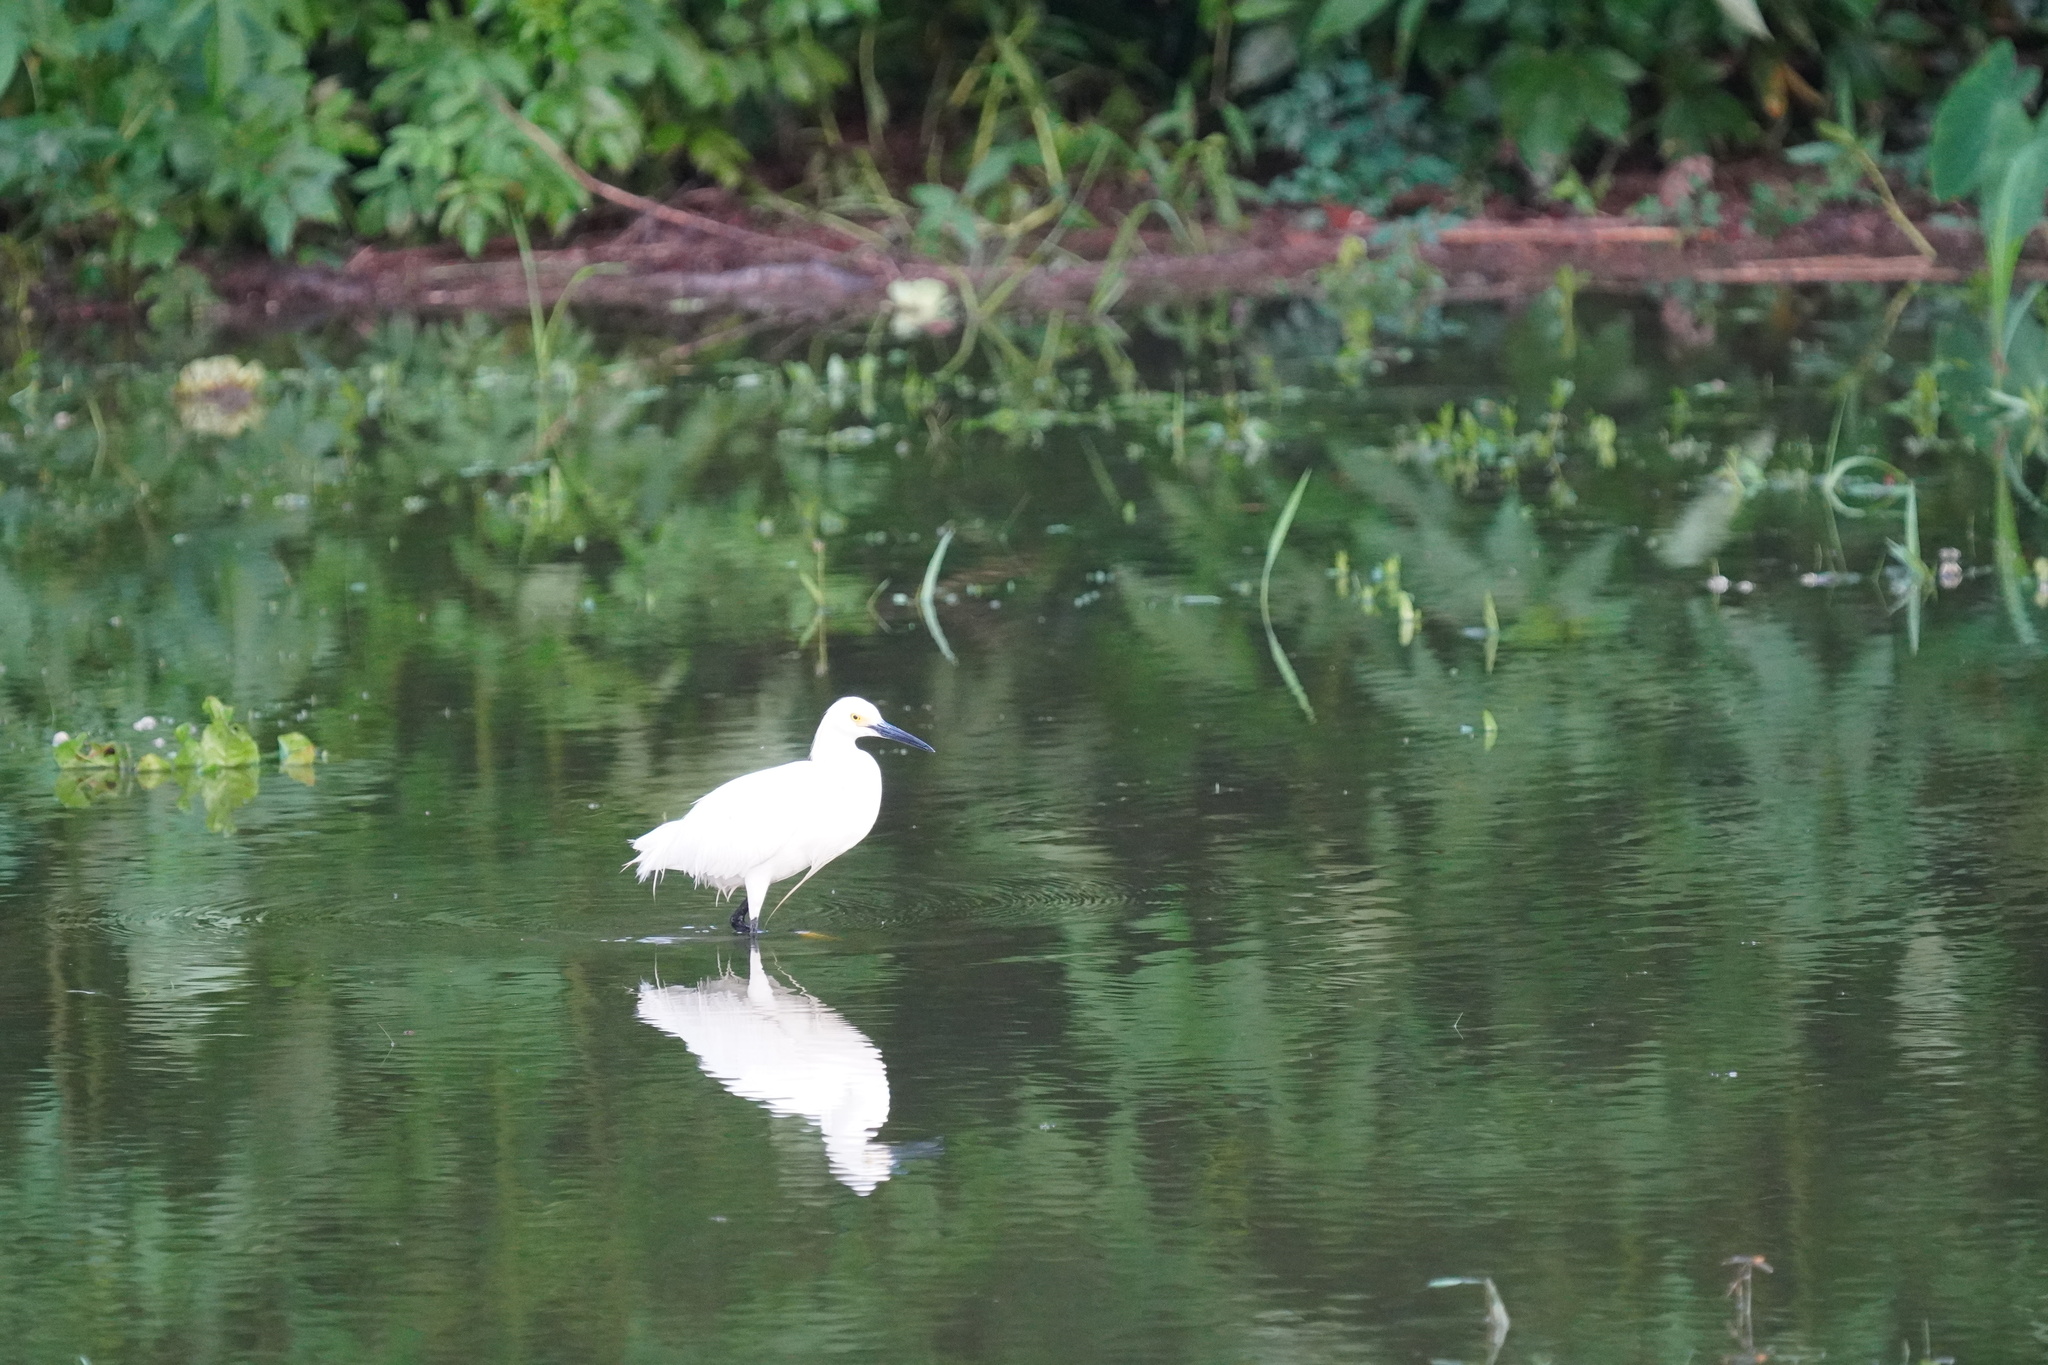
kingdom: Animalia
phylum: Chordata
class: Aves
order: Pelecaniformes
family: Ardeidae
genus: Egretta
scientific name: Egretta thula
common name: Snowy egret
